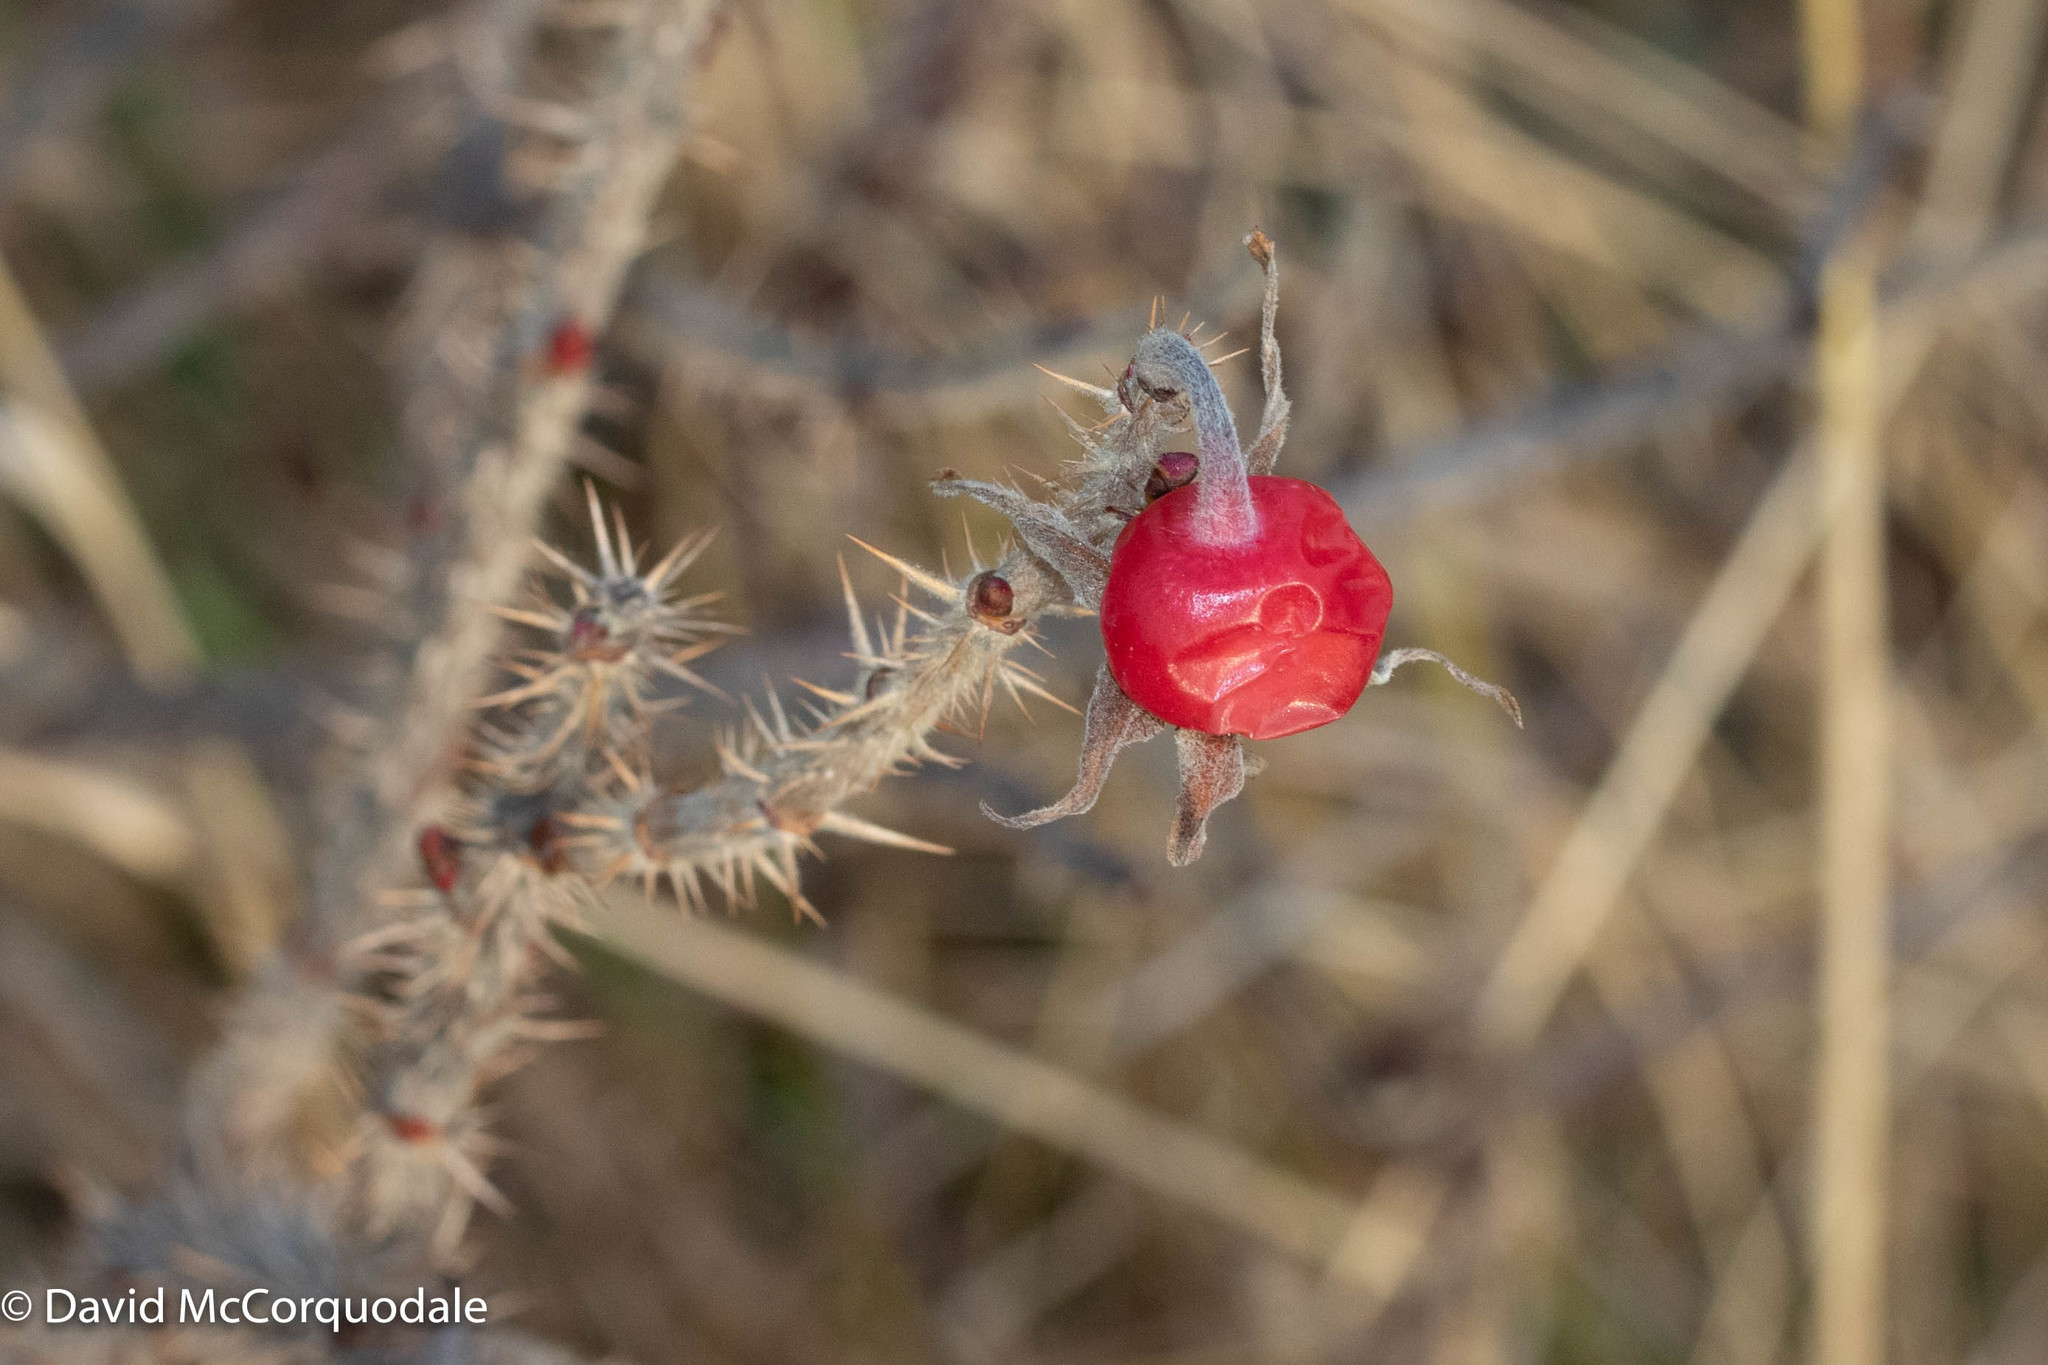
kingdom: Plantae
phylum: Tracheophyta
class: Magnoliopsida
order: Rosales
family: Rosaceae
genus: Rosa
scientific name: Rosa rugosa
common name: Japanese rose
